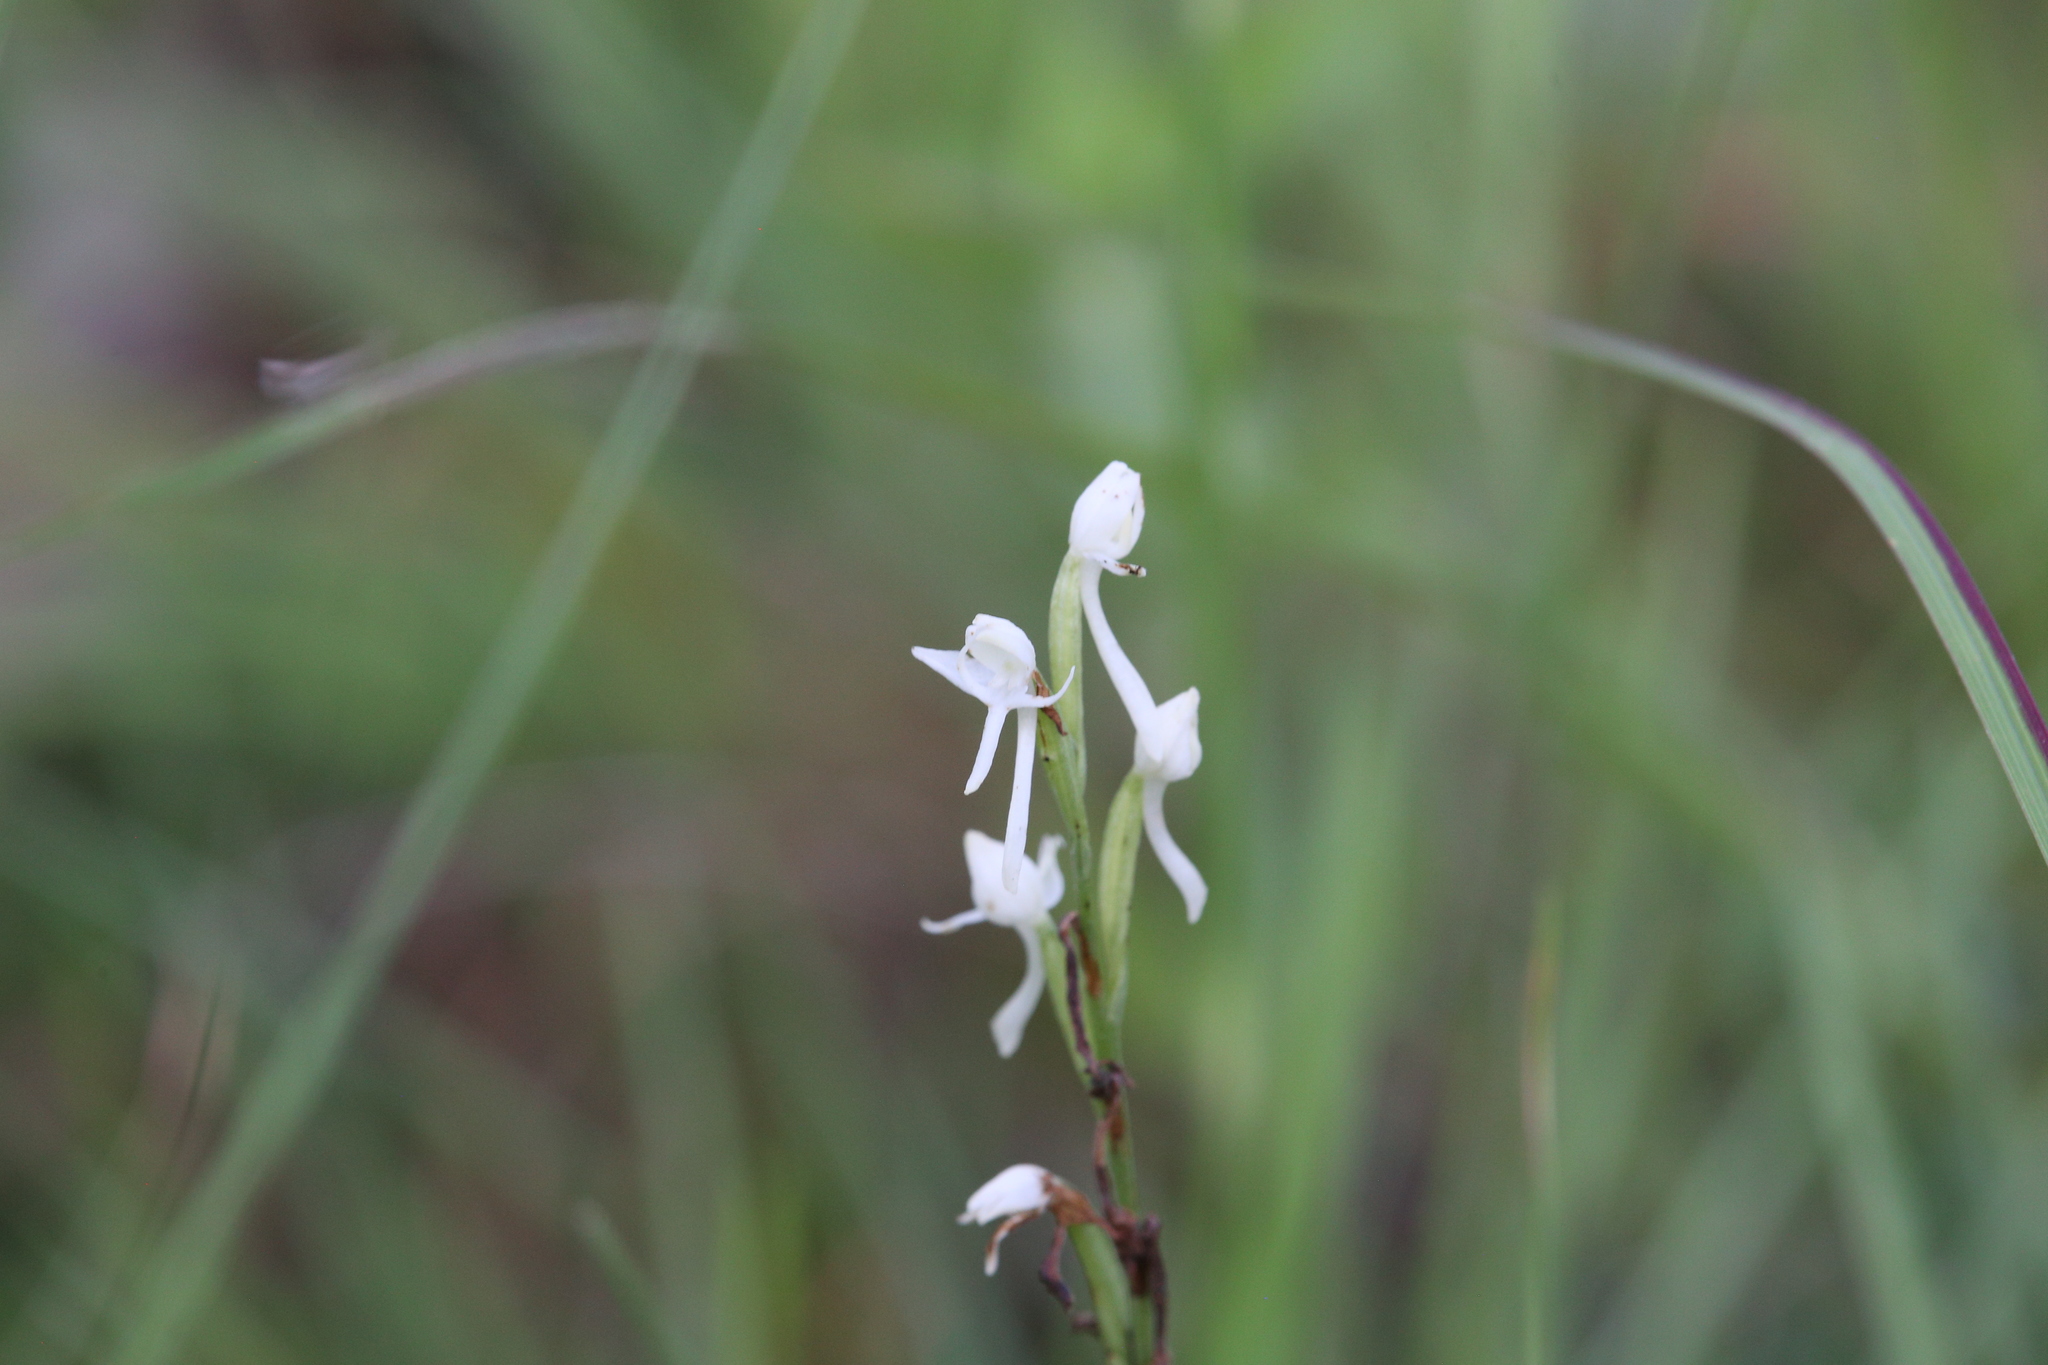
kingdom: Plantae
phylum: Tracheophyta
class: Liliopsida
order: Asparagales
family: Orchidaceae
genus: Habenaria
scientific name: Habenaria propinquior
